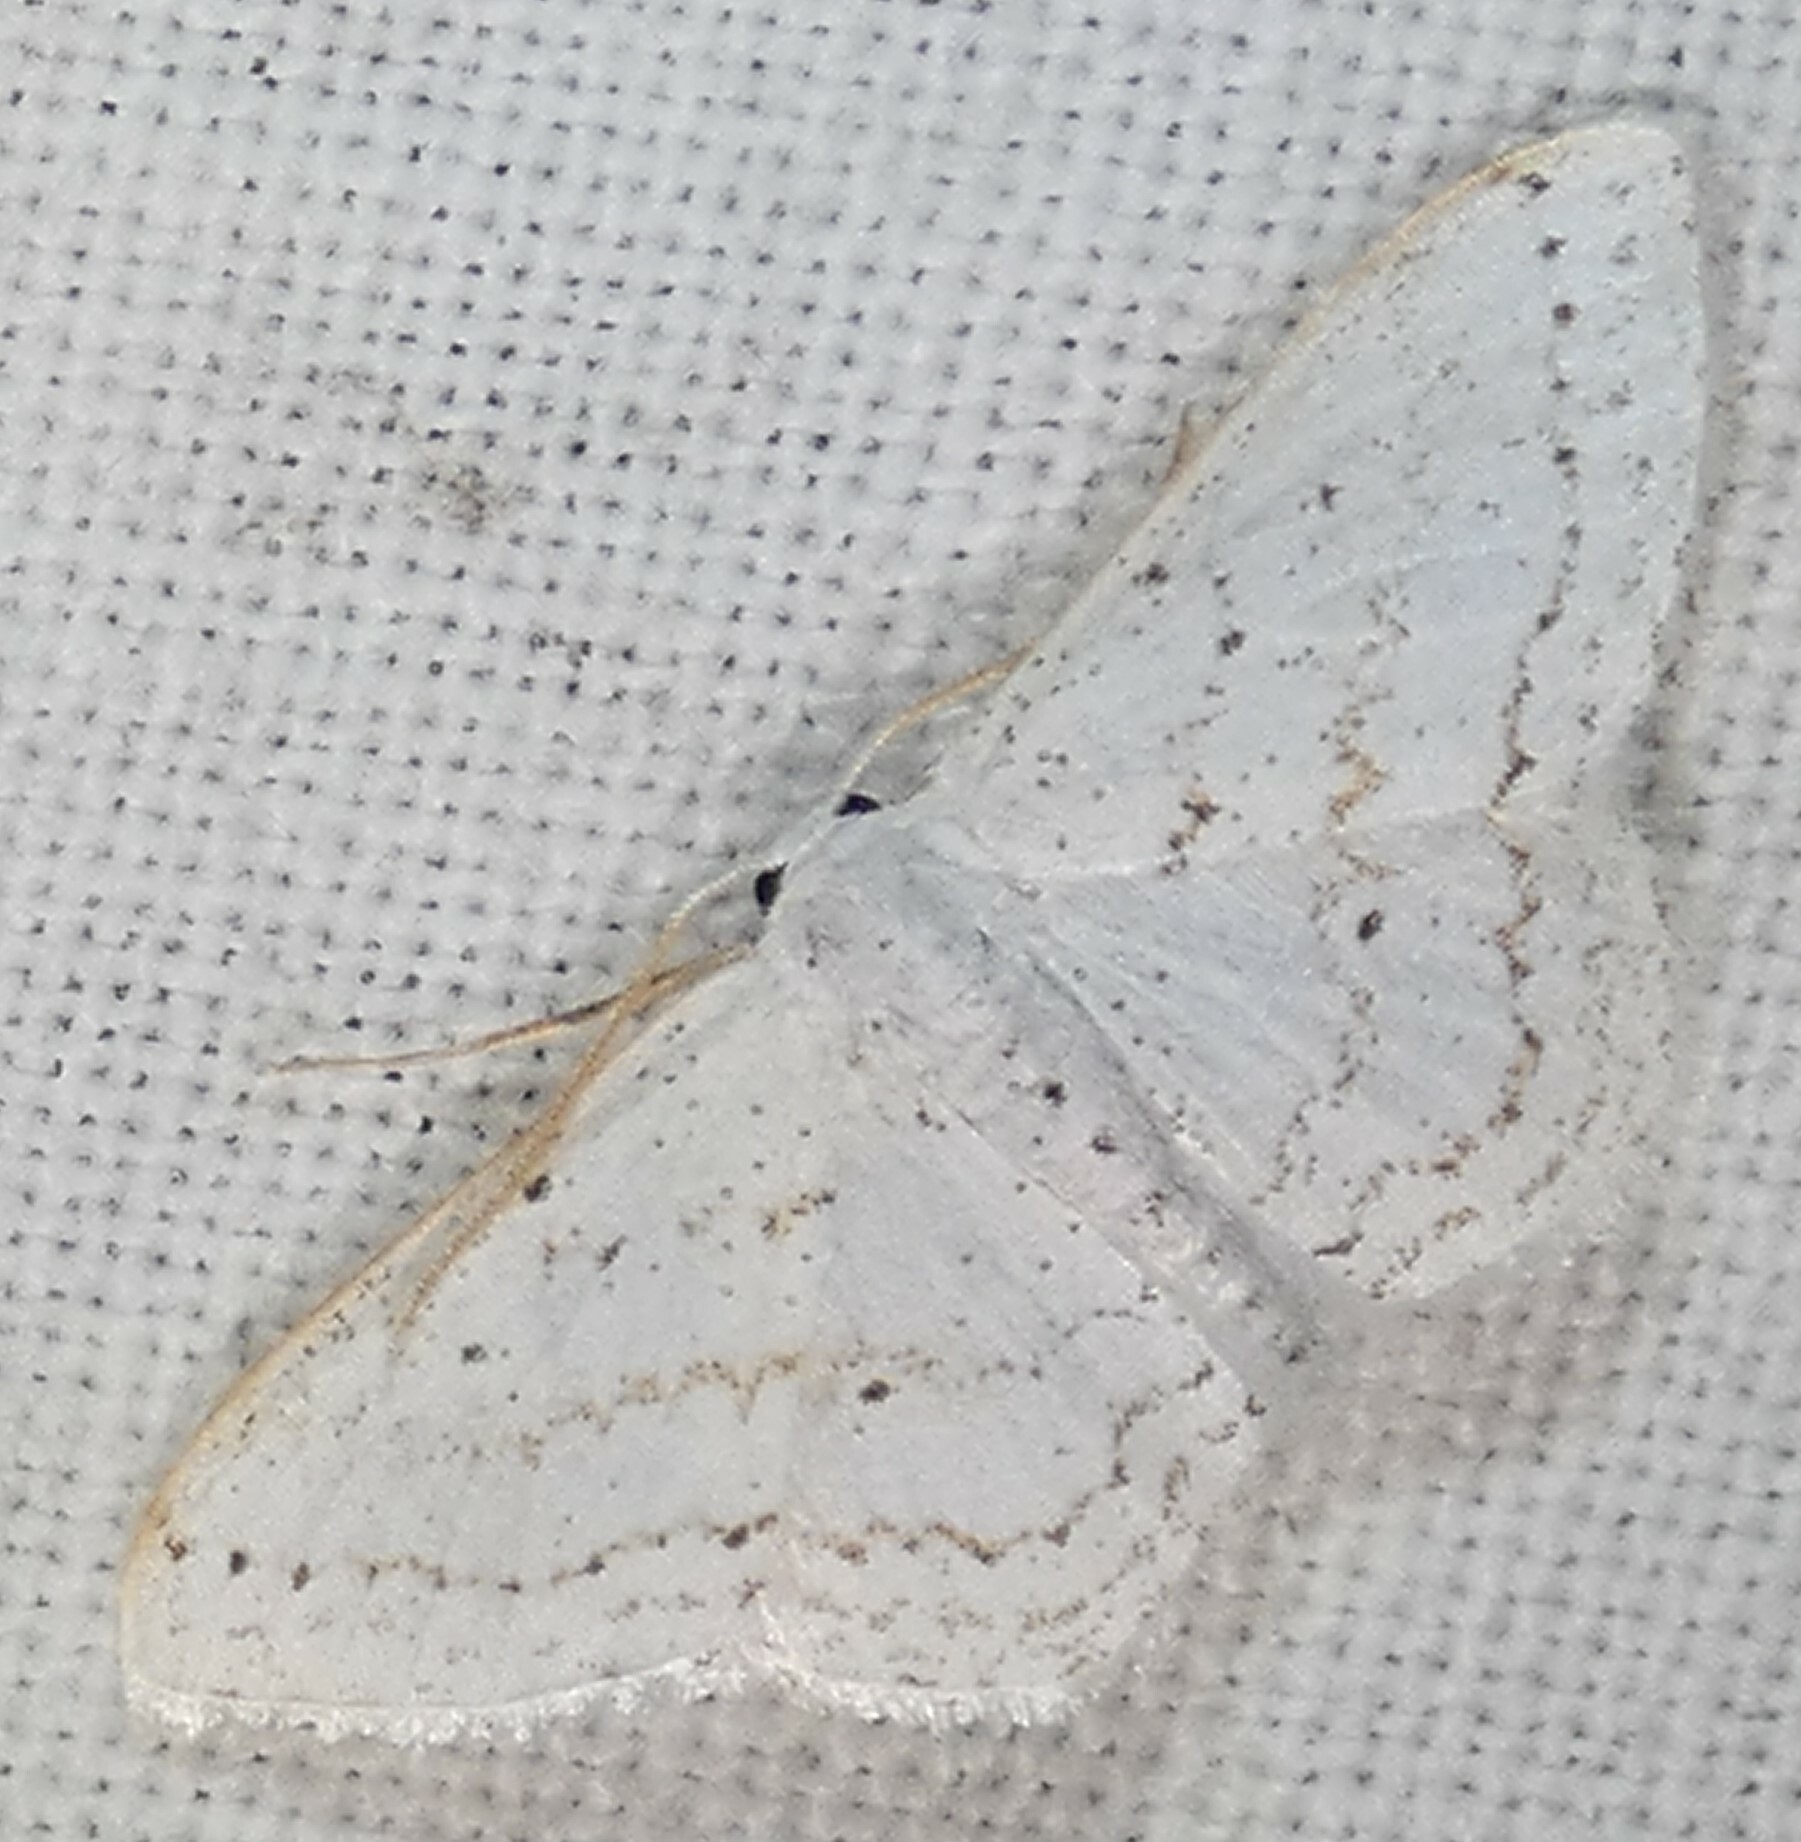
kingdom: Animalia
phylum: Arthropoda
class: Insecta
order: Lepidoptera
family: Geometridae
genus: Idaea
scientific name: Idaea tacturata
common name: Dot-lined wave
